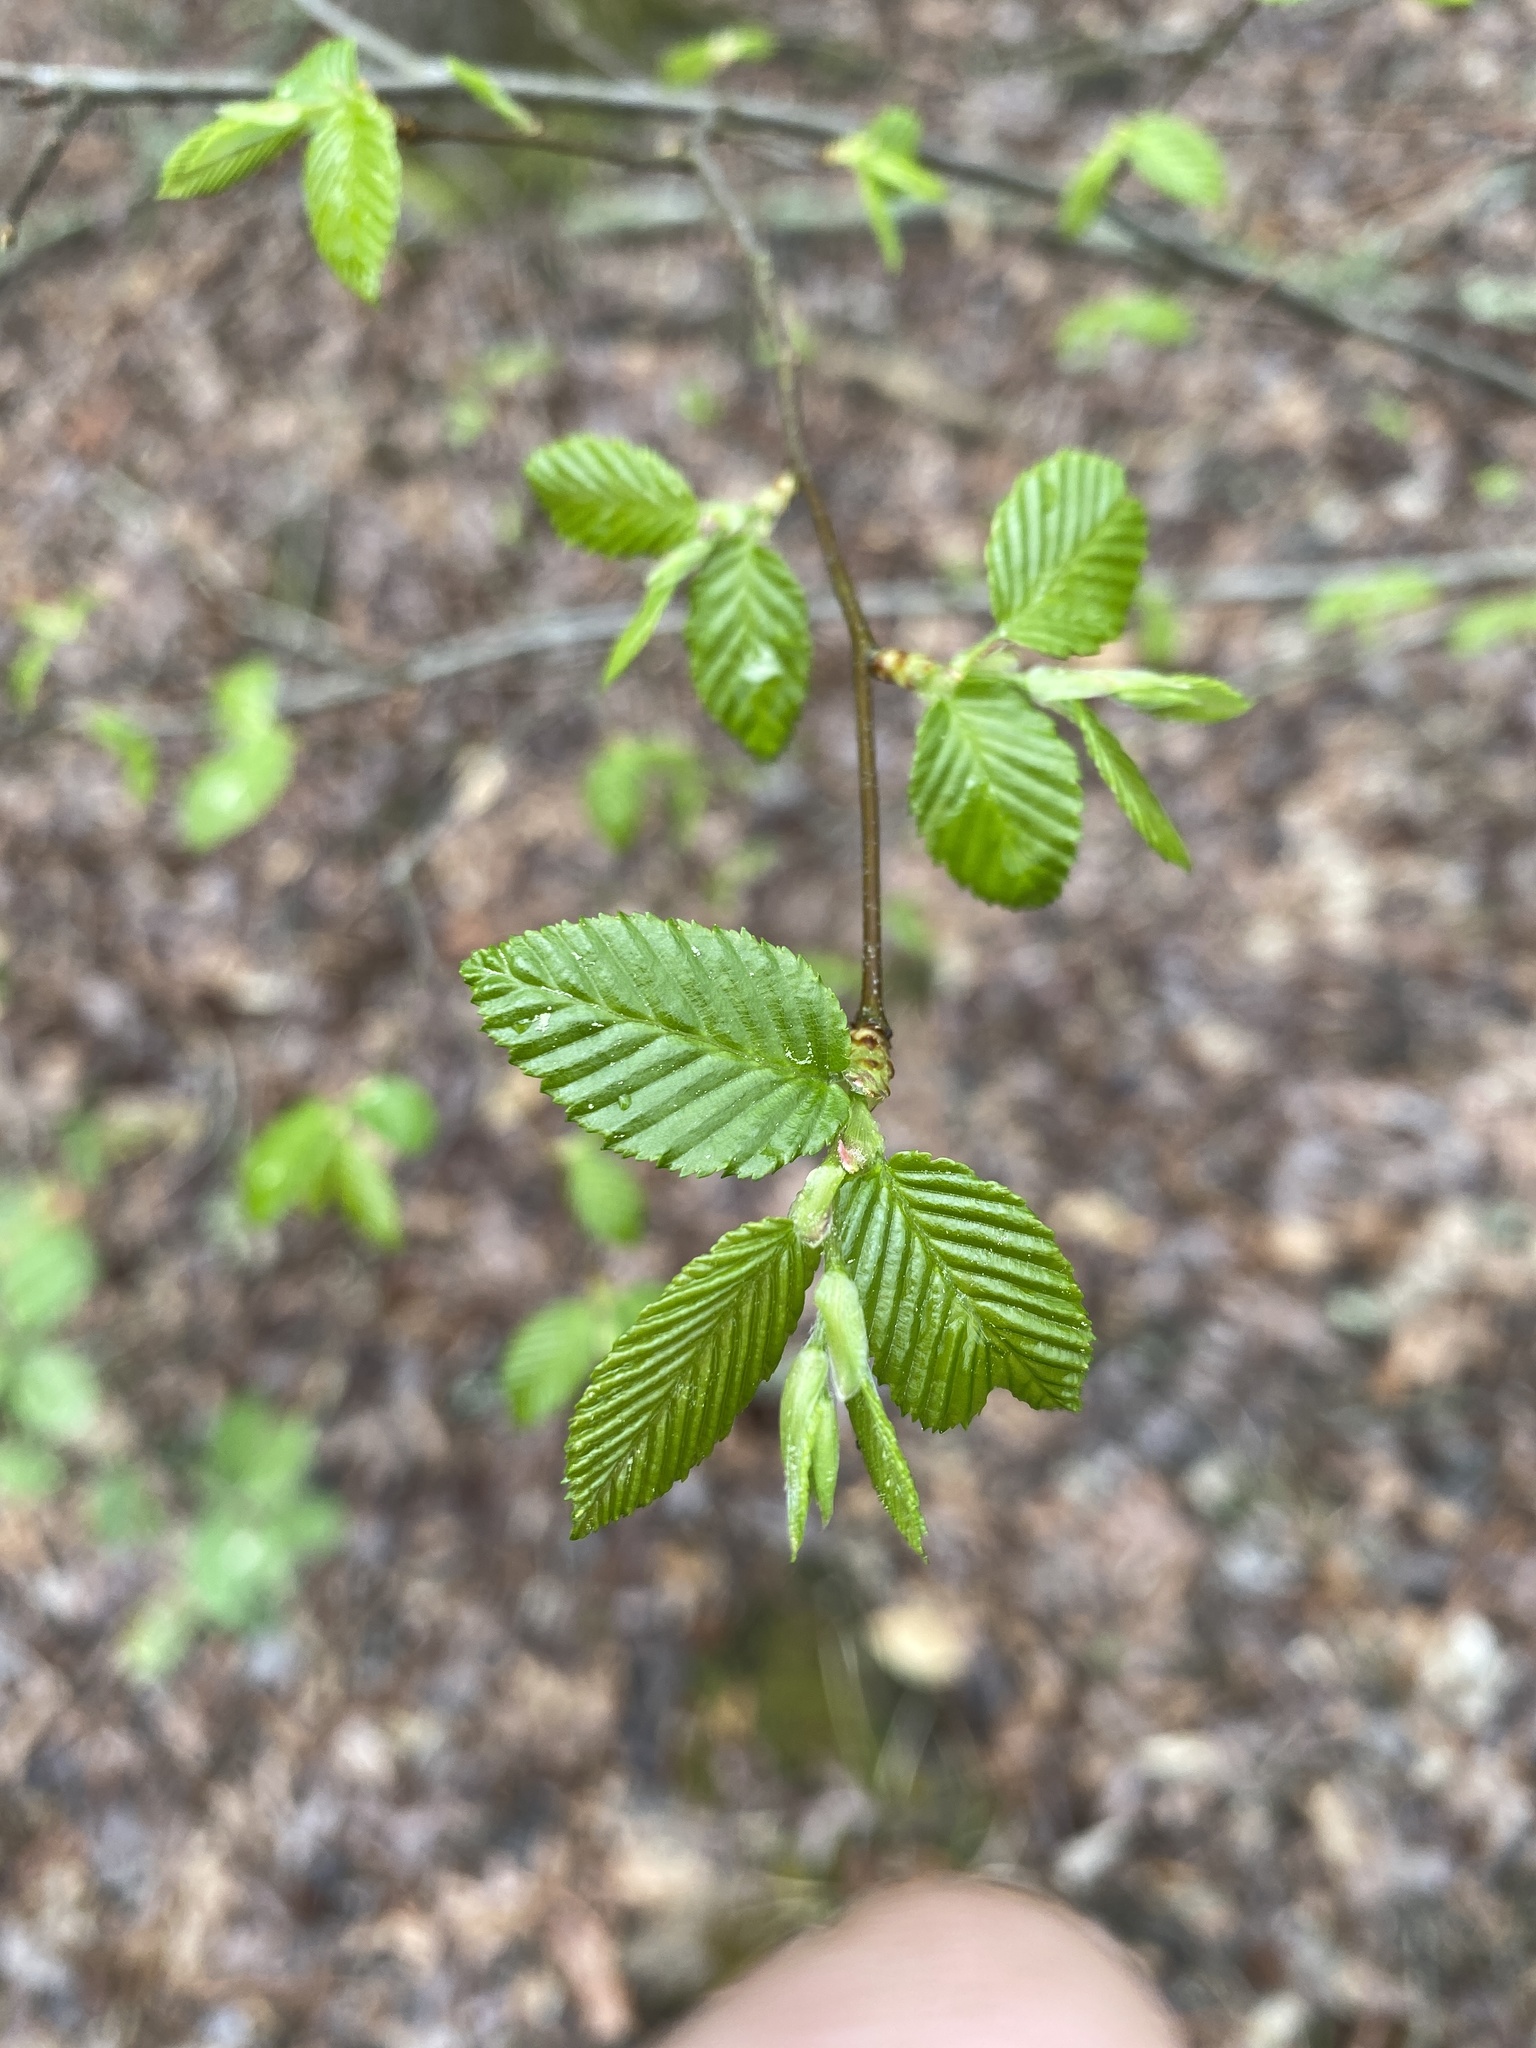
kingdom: Plantae
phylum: Tracheophyta
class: Magnoliopsida
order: Fagales
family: Betulaceae
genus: Carpinus
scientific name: Carpinus caroliniana
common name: American hornbeam
